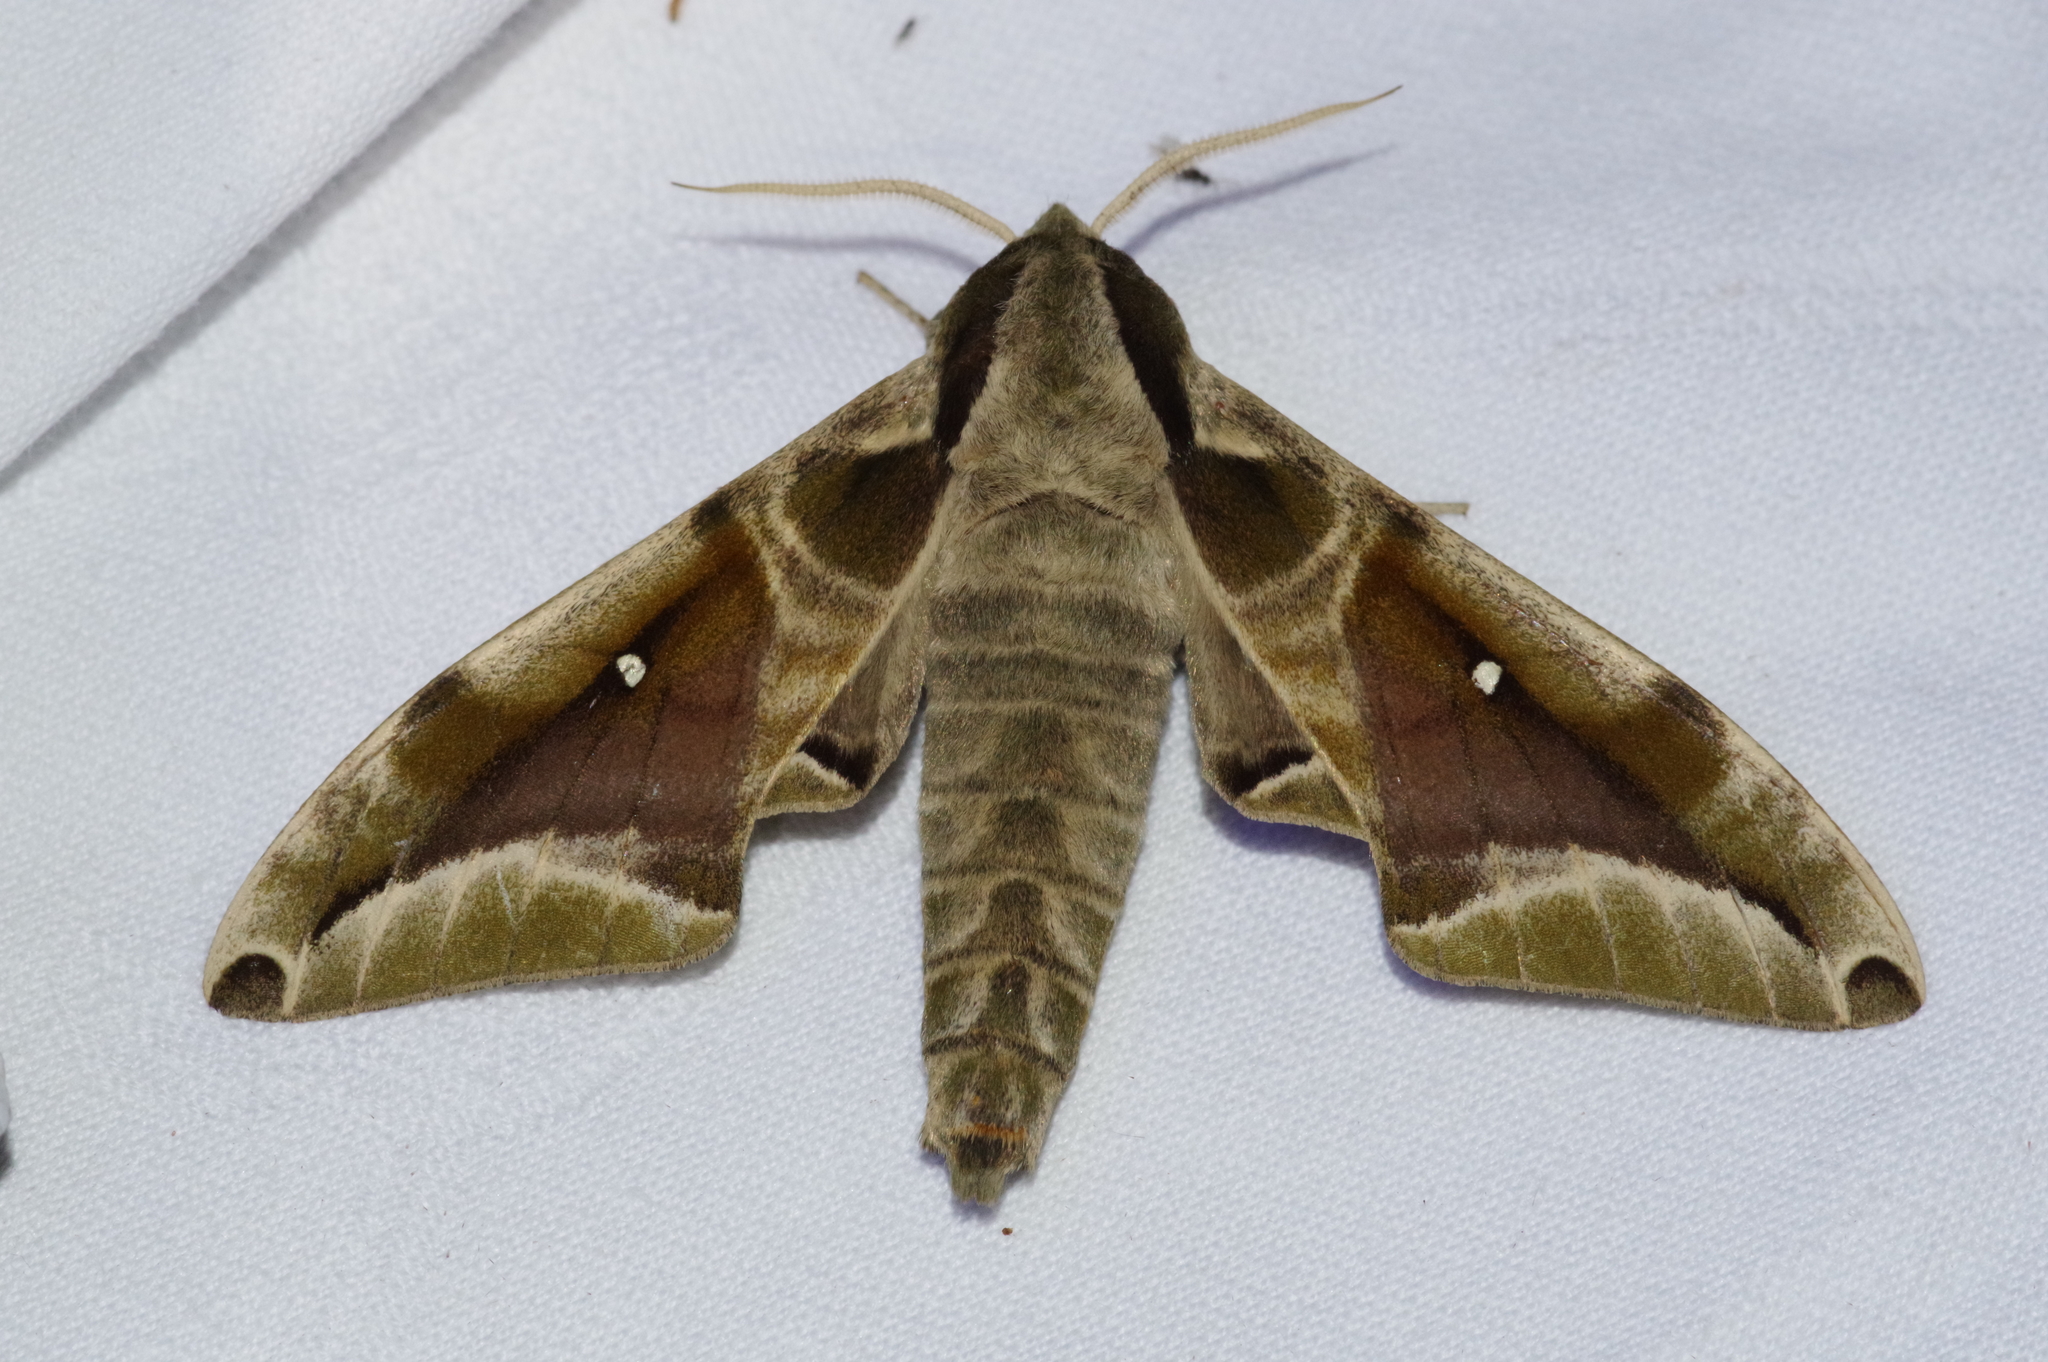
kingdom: Animalia
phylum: Arthropoda
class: Insecta
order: Lepidoptera
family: Sphingidae
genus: Parum
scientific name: Parum colligata
